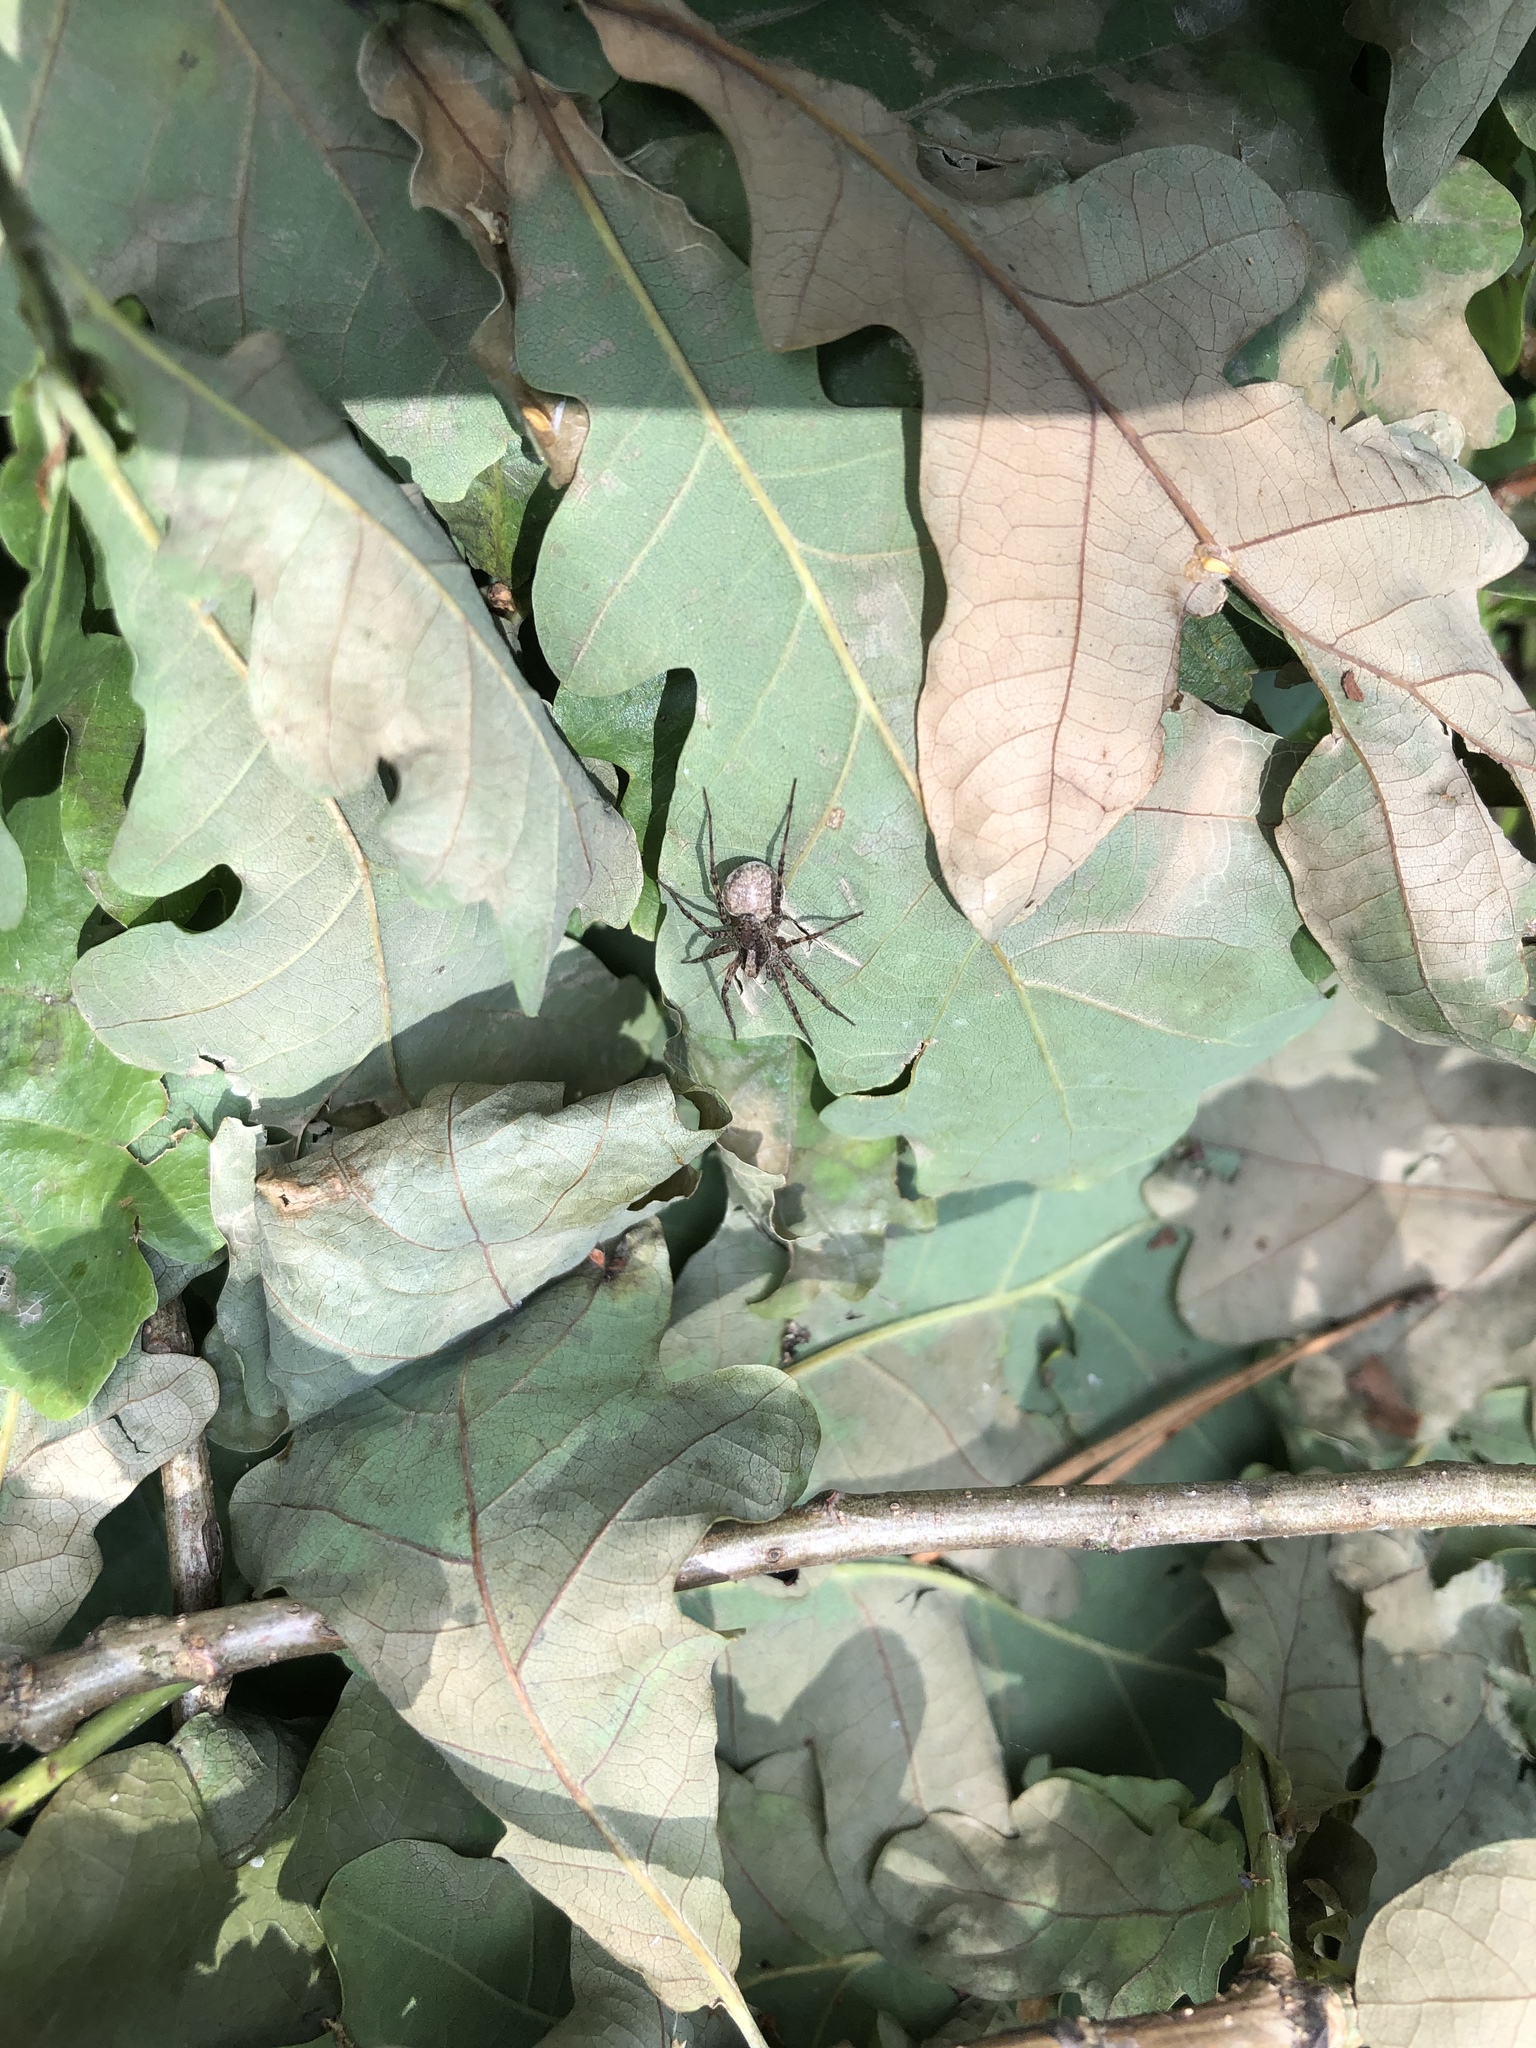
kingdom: Animalia
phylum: Arthropoda
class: Arachnida
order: Araneae
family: Lycosidae
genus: Pardosa
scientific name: Pardosa
